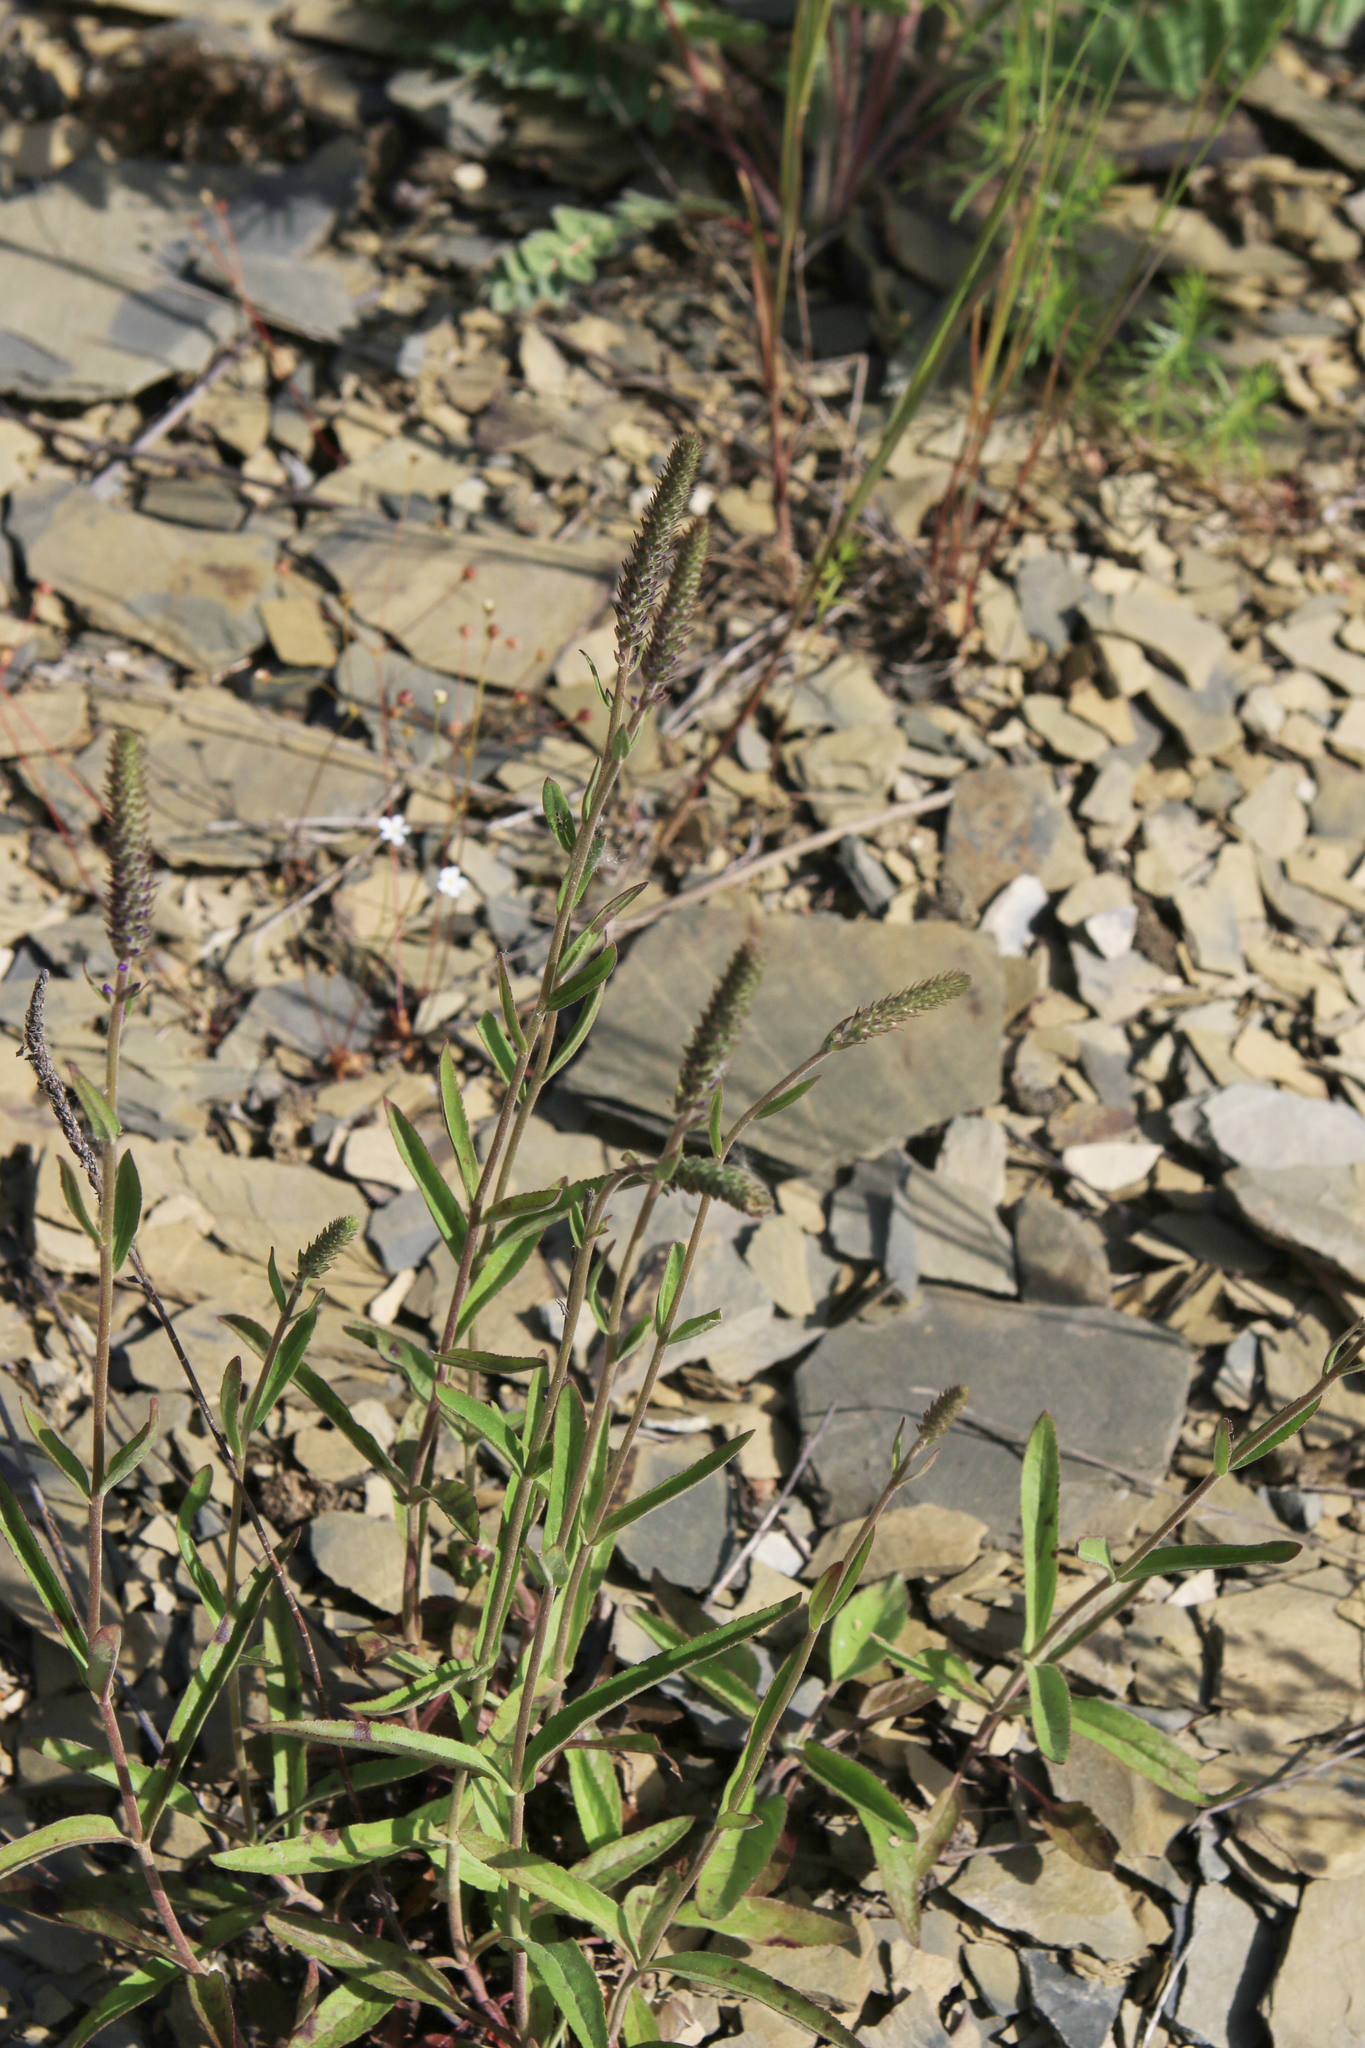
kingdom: Plantae
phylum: Tracheophyta
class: Magnoliopsida
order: Lamiales
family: Plantaginaceae
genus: Veronica
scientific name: Veronica spicata
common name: Spiked speedwell
